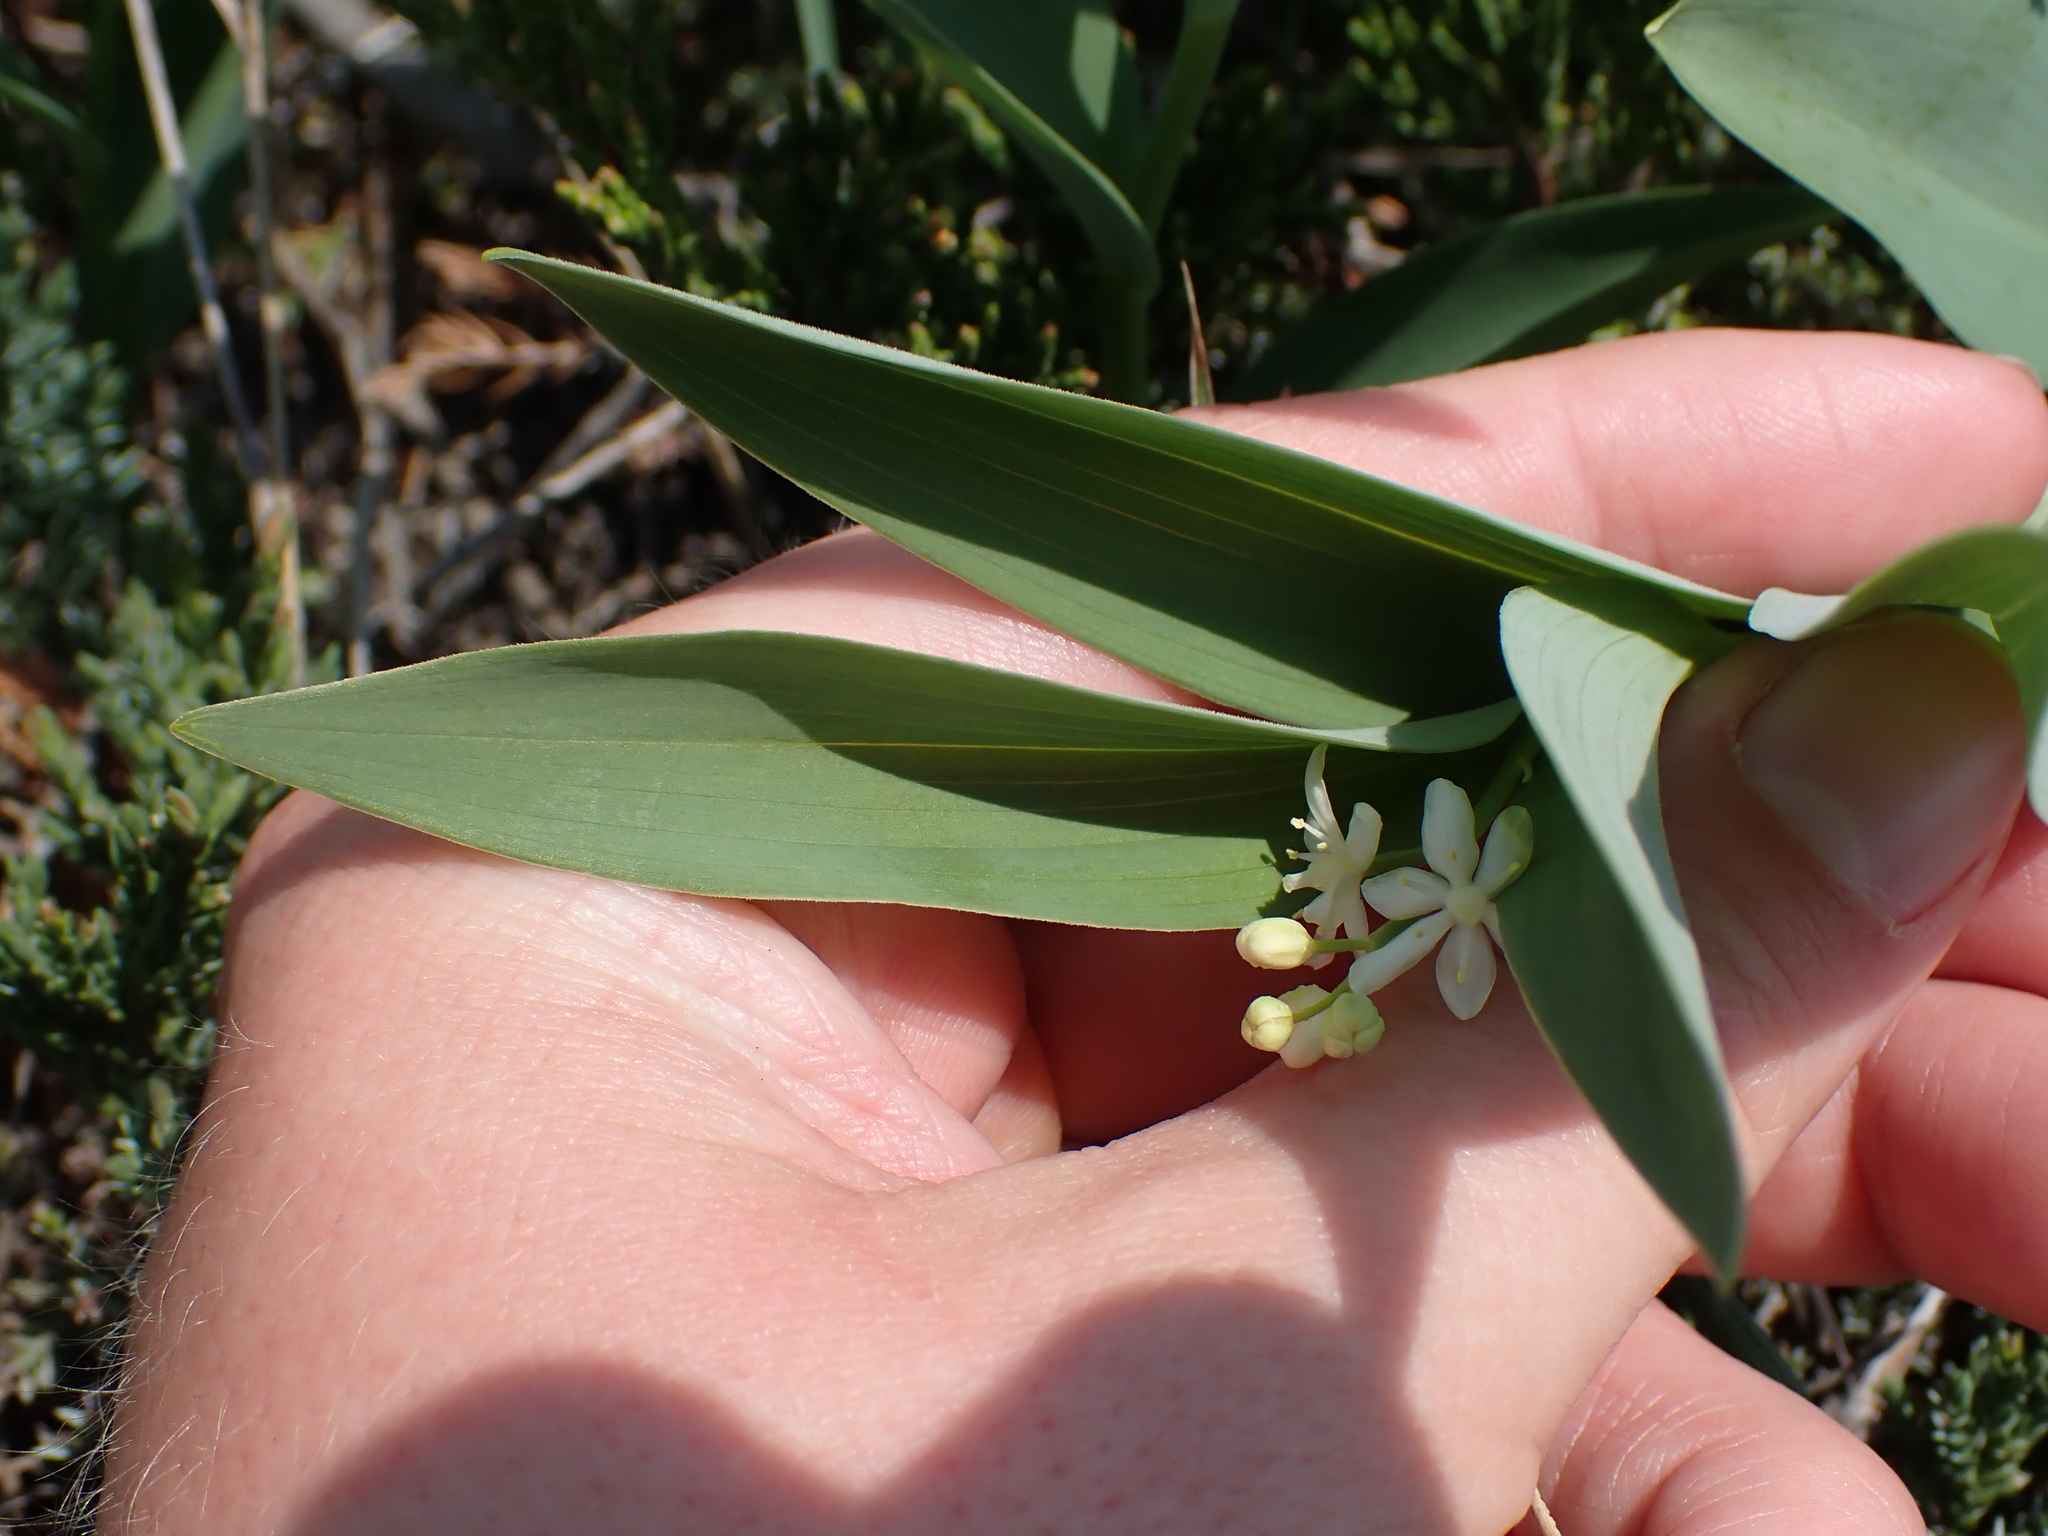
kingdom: Plantae
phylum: Tracheophyta
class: Liliopsida
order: Asparagales
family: Asparagaceae
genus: Maianthemum
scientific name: Maianthemum stellatum
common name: Little false solomon's seal
